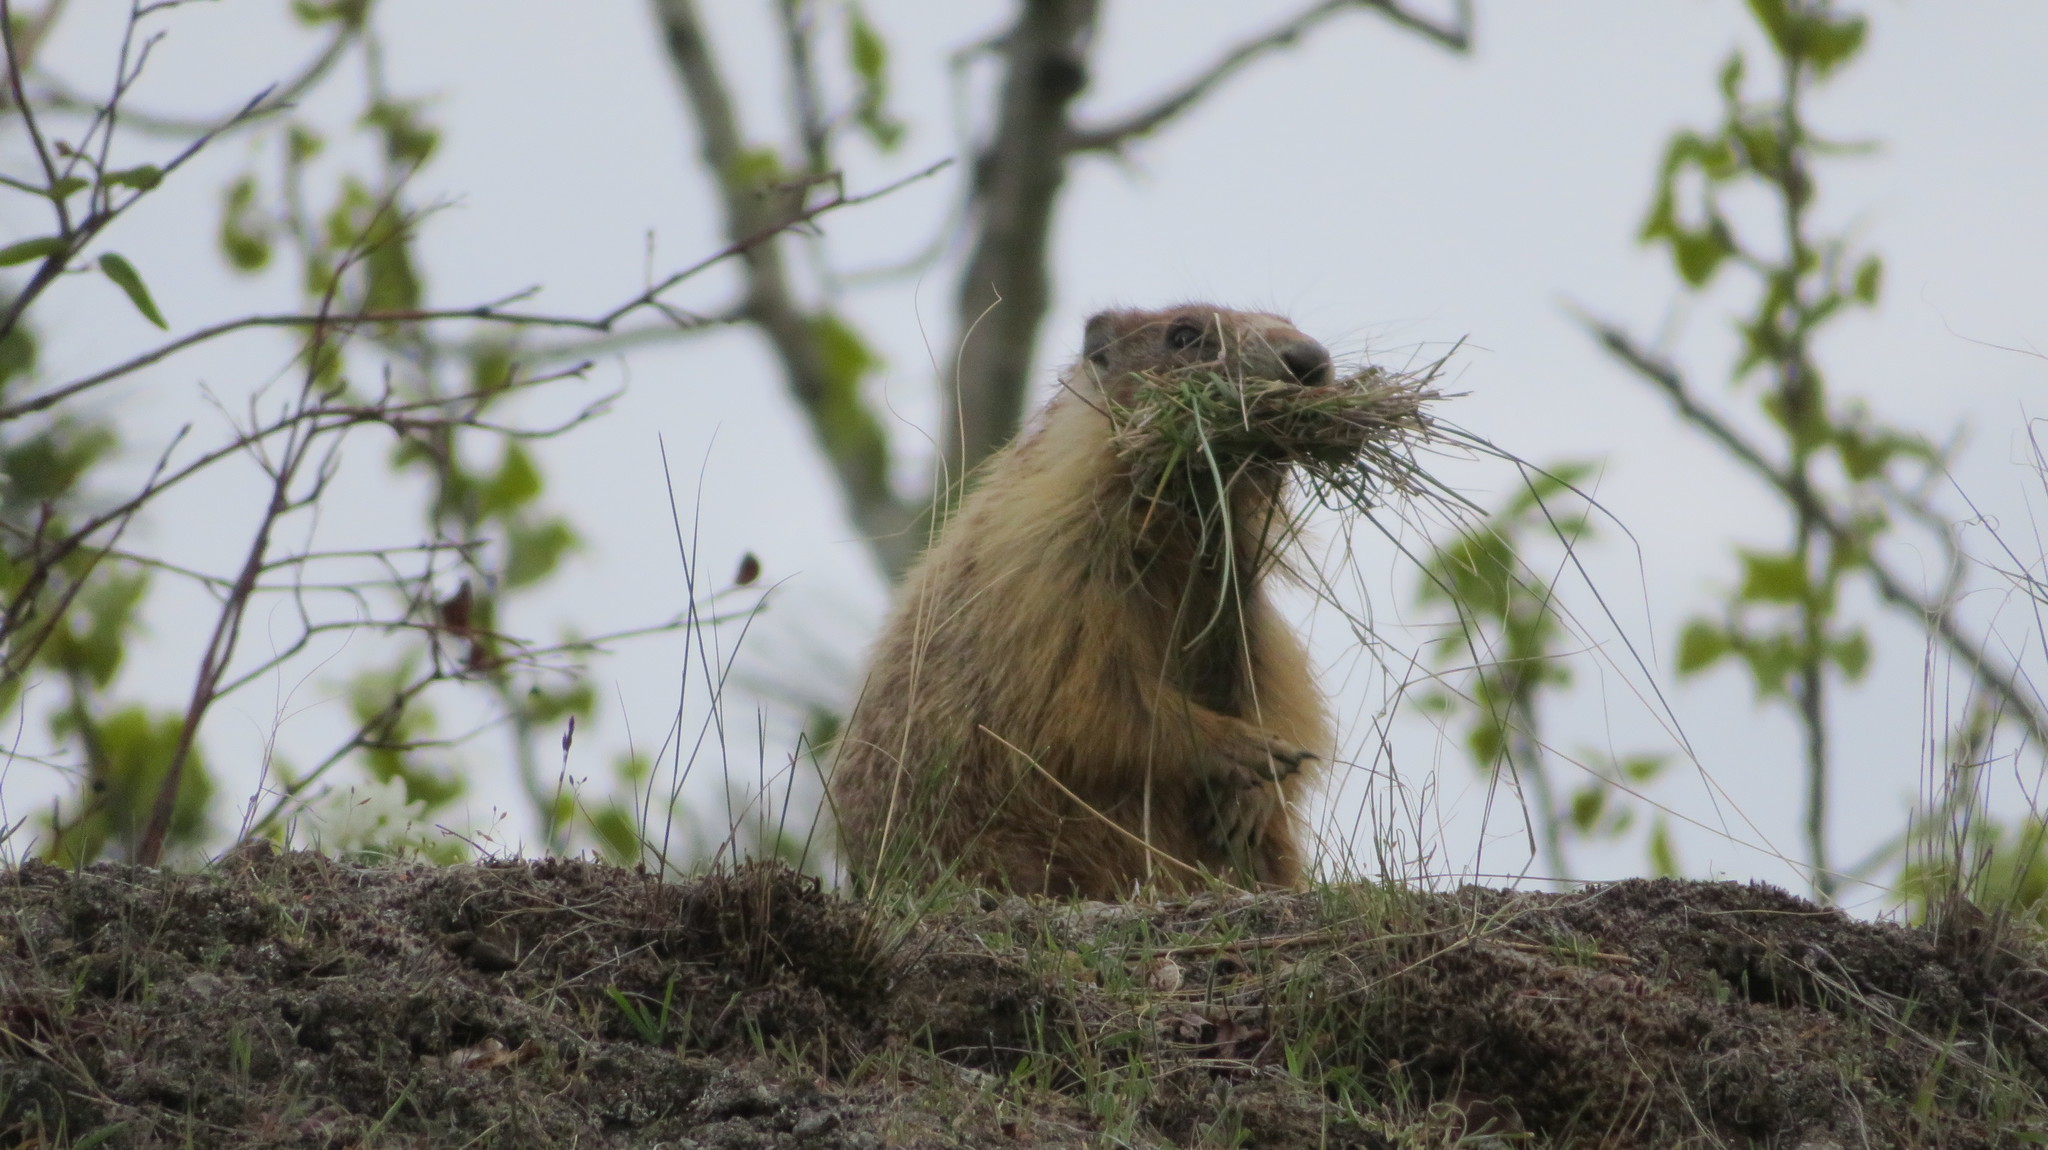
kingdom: Animalia
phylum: Chordata
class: Mammalia
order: Rodentia
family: Sciuridae
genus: Marmota
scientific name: Marmota flaviventris
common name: Yellow-bellied marmot
